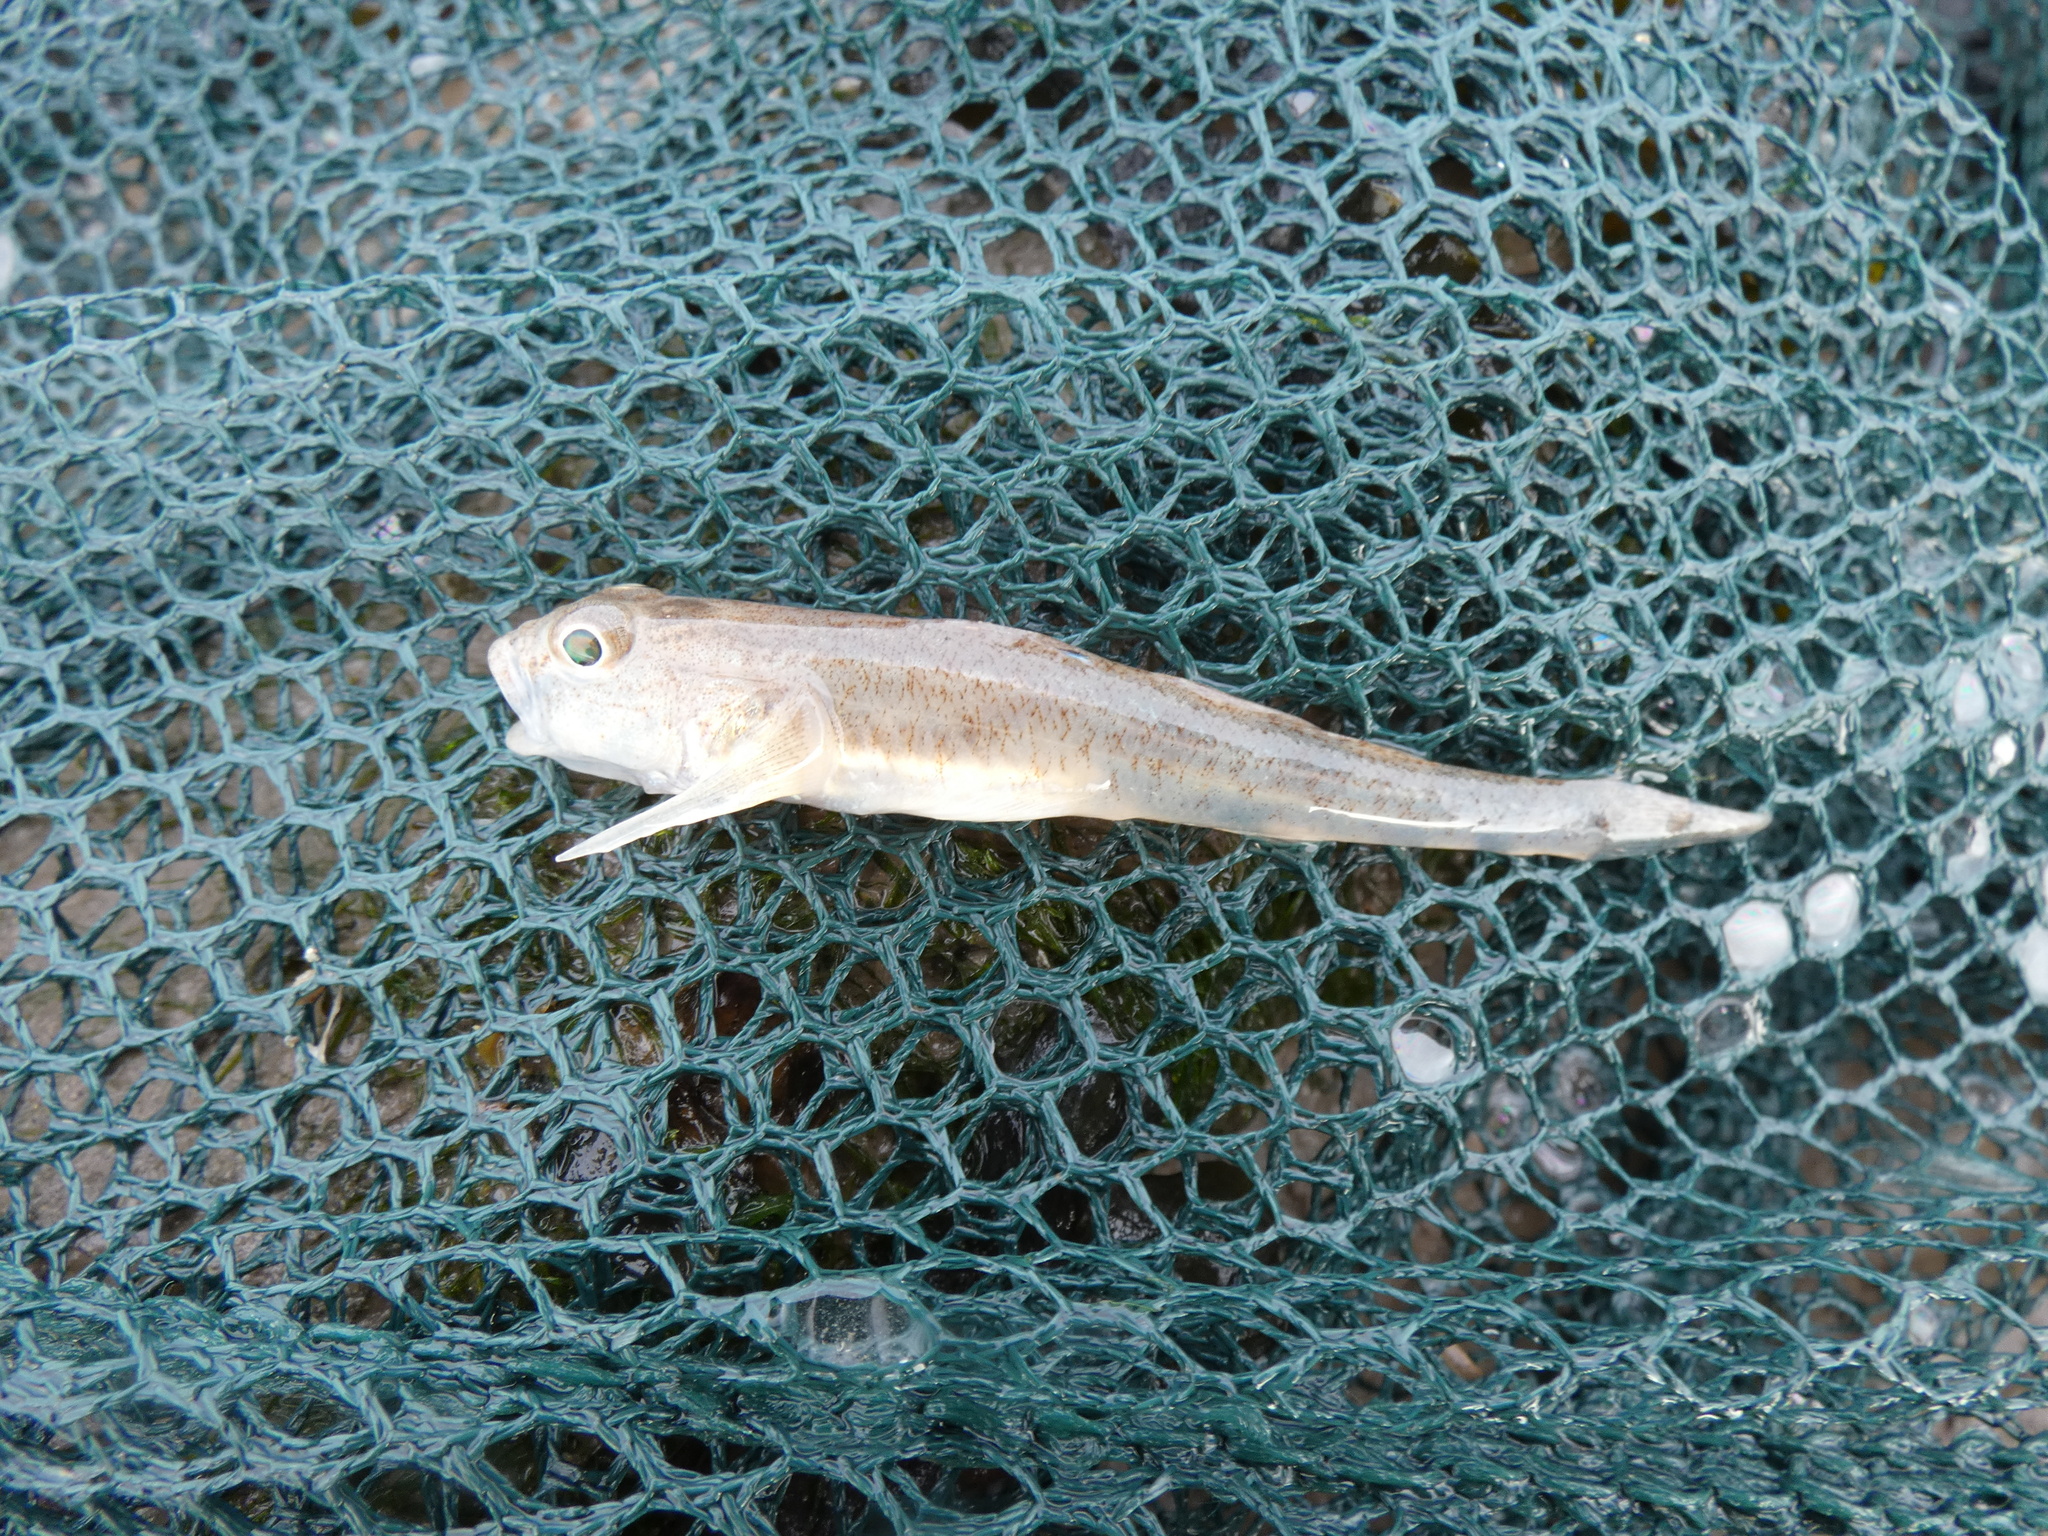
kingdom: Animalia
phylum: Chordata
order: Perciformes
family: Gobiidae
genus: Pomatoschistus
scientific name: Pomatoschistus minutus
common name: Sand goby
